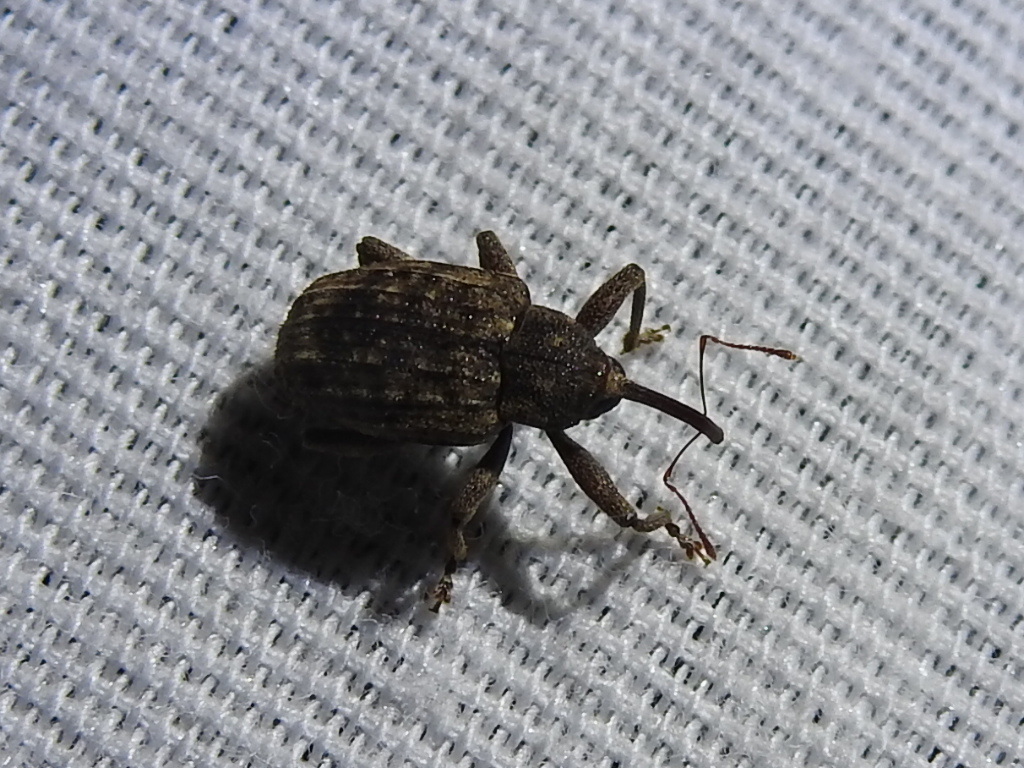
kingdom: Animalia
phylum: Arthropoda
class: Insecta
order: Coleoptera
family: Curculionidae
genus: Conotrachelus
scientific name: Conotrachelus naso
